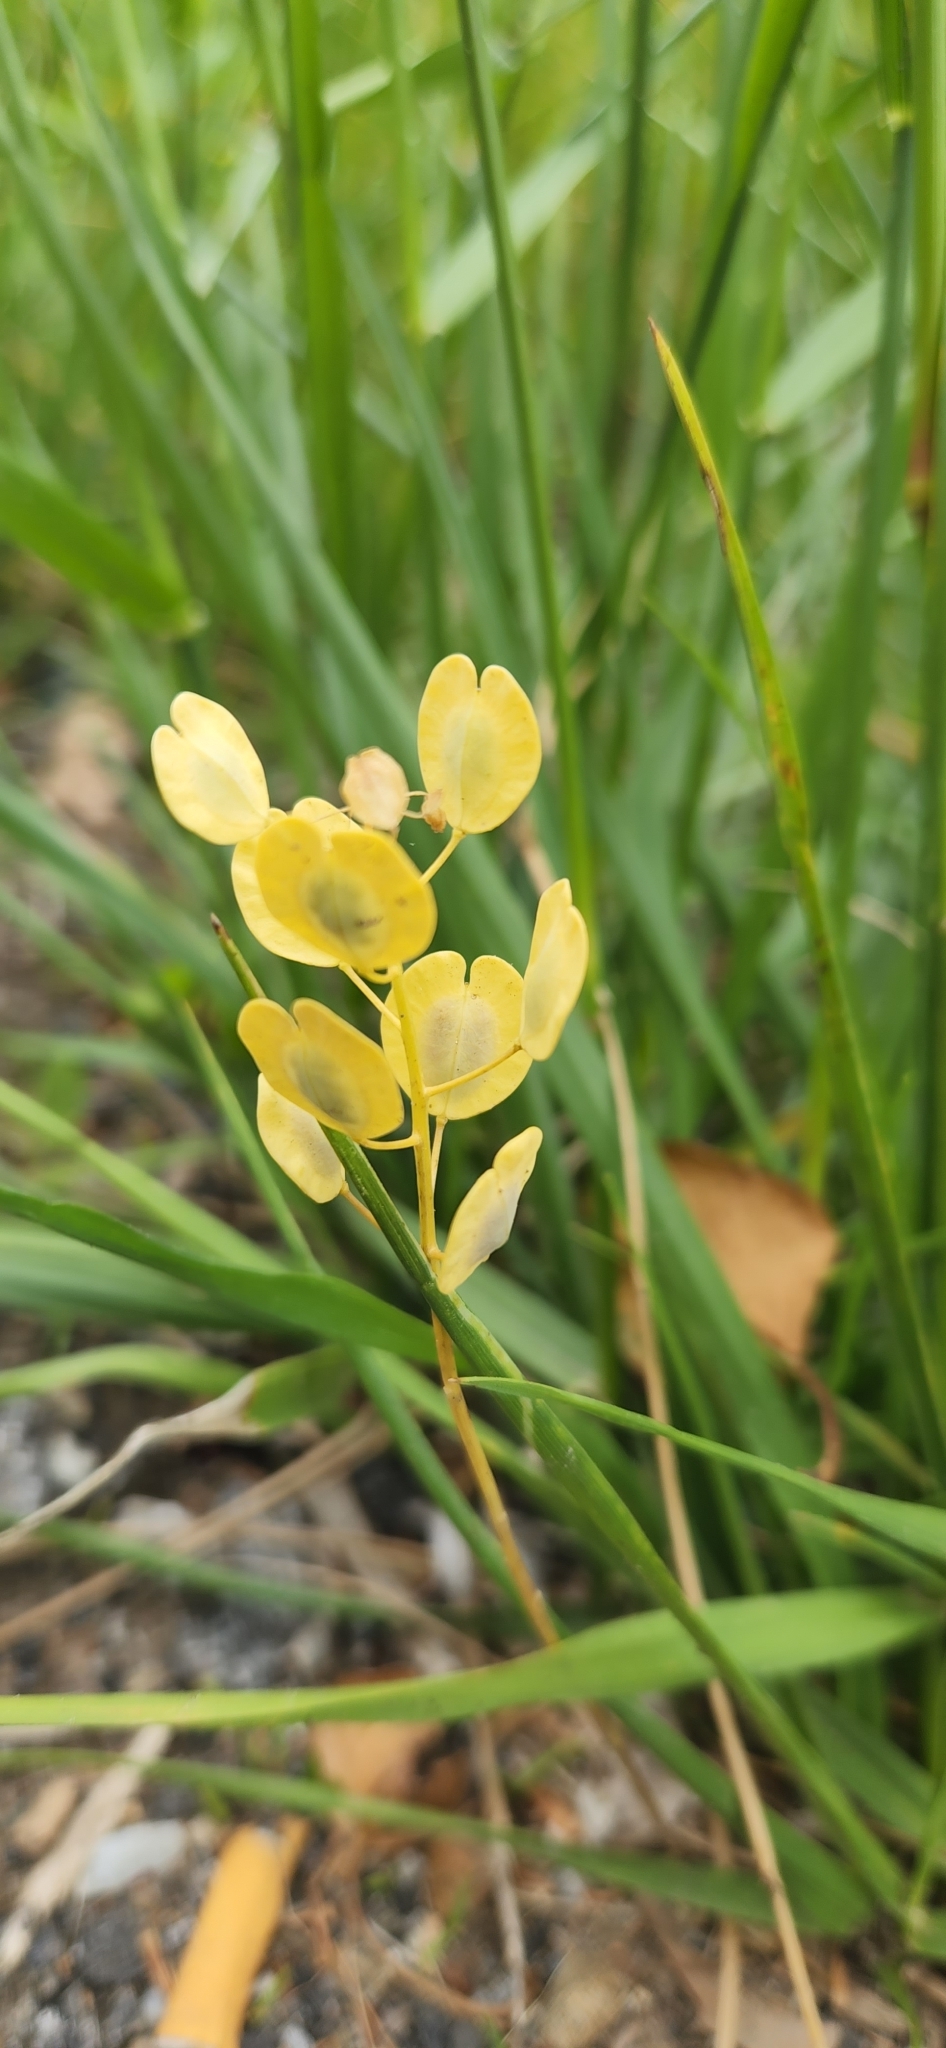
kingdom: Plantae
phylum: Tracheophyta
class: Magnoliopsida
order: Brassicales
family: Brassicaceae
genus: Thlaspi
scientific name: Thlaspi arvense
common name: Field pennycress
